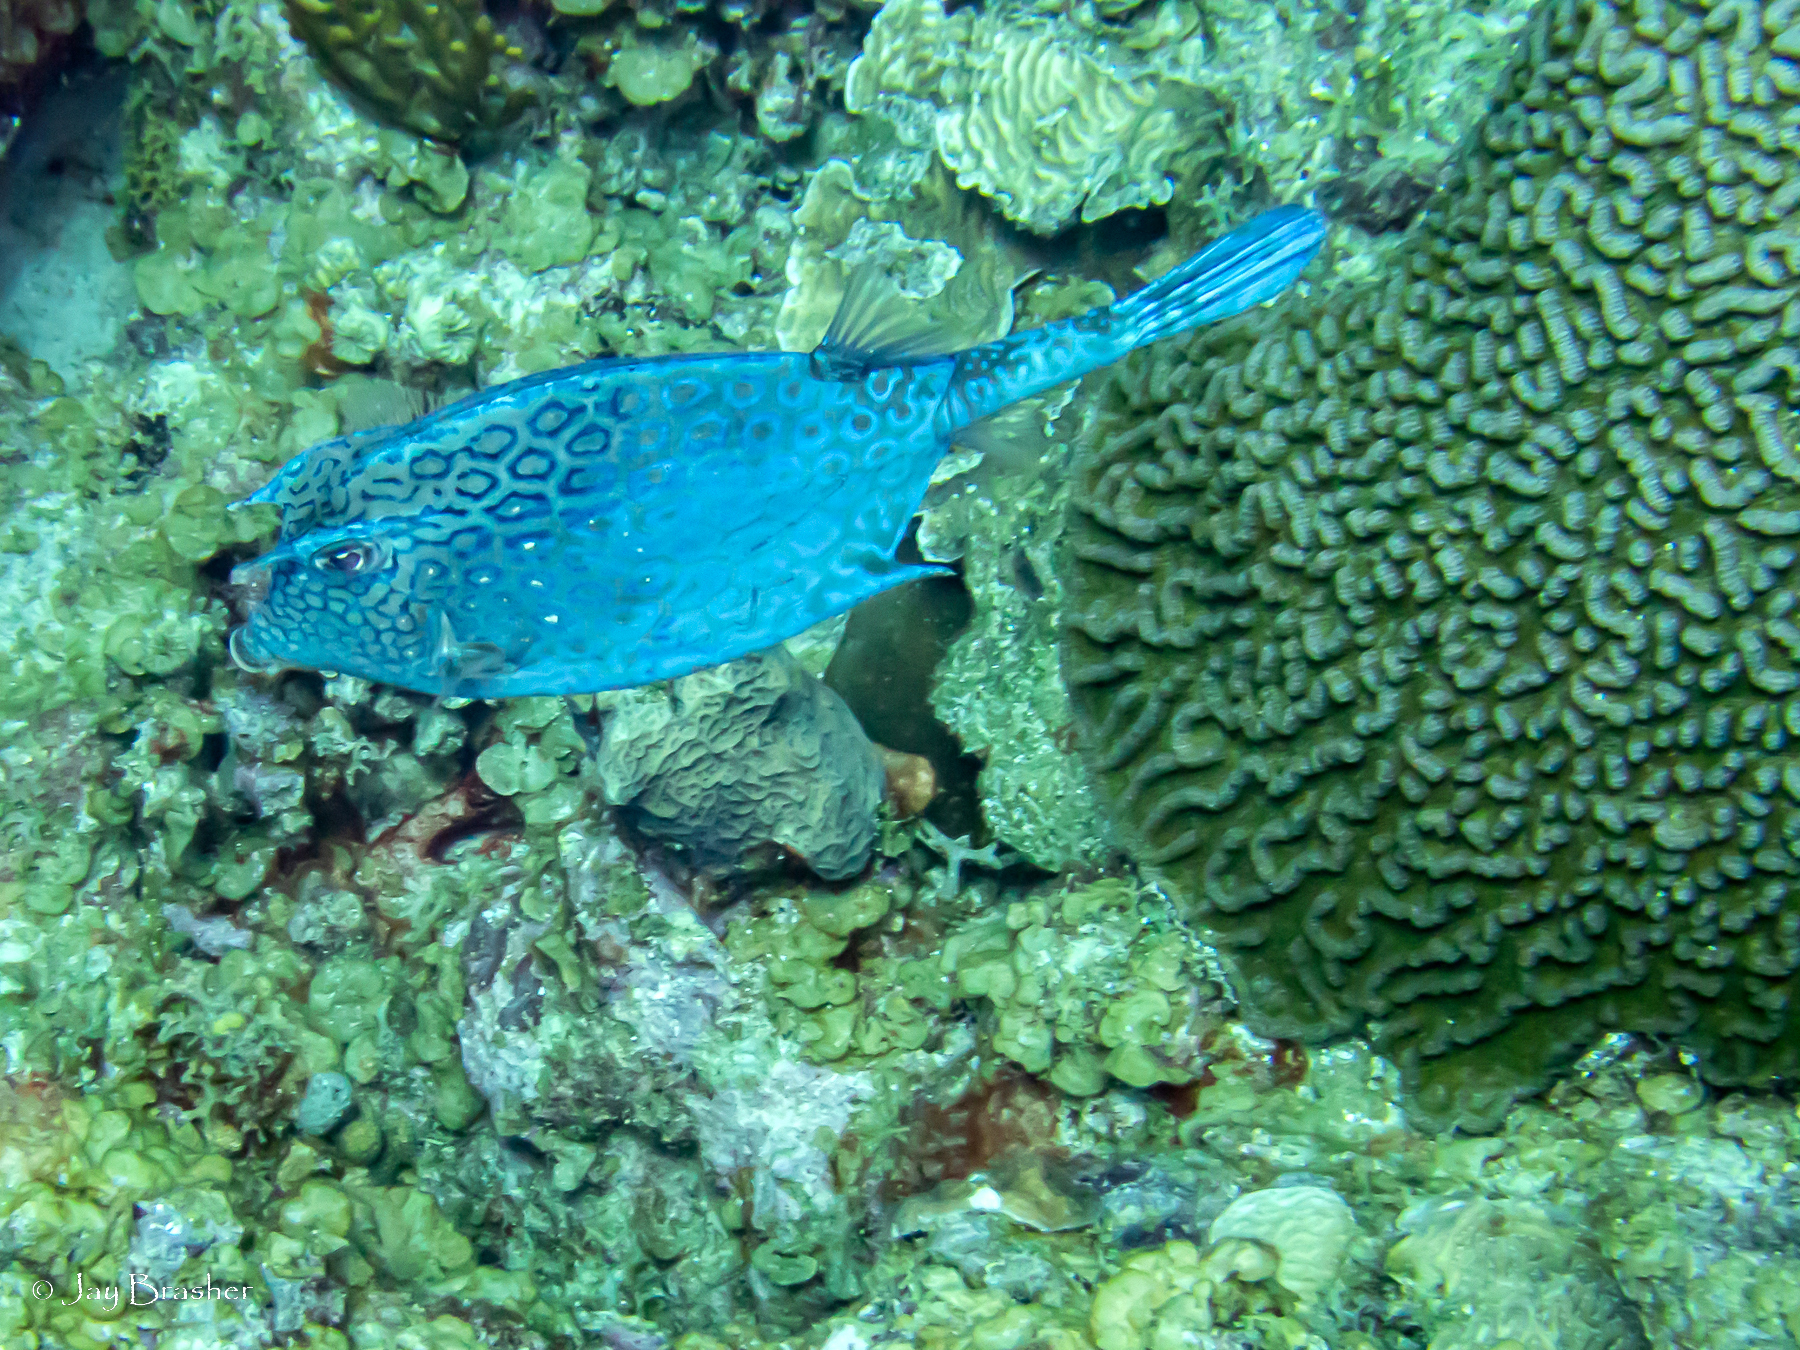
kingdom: Animalia
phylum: Chordata
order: Tetraodontiformes
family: Ostraciidae
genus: Acanthostracion
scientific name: Acanthostracion polygonius
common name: Honeycomb cowfish
